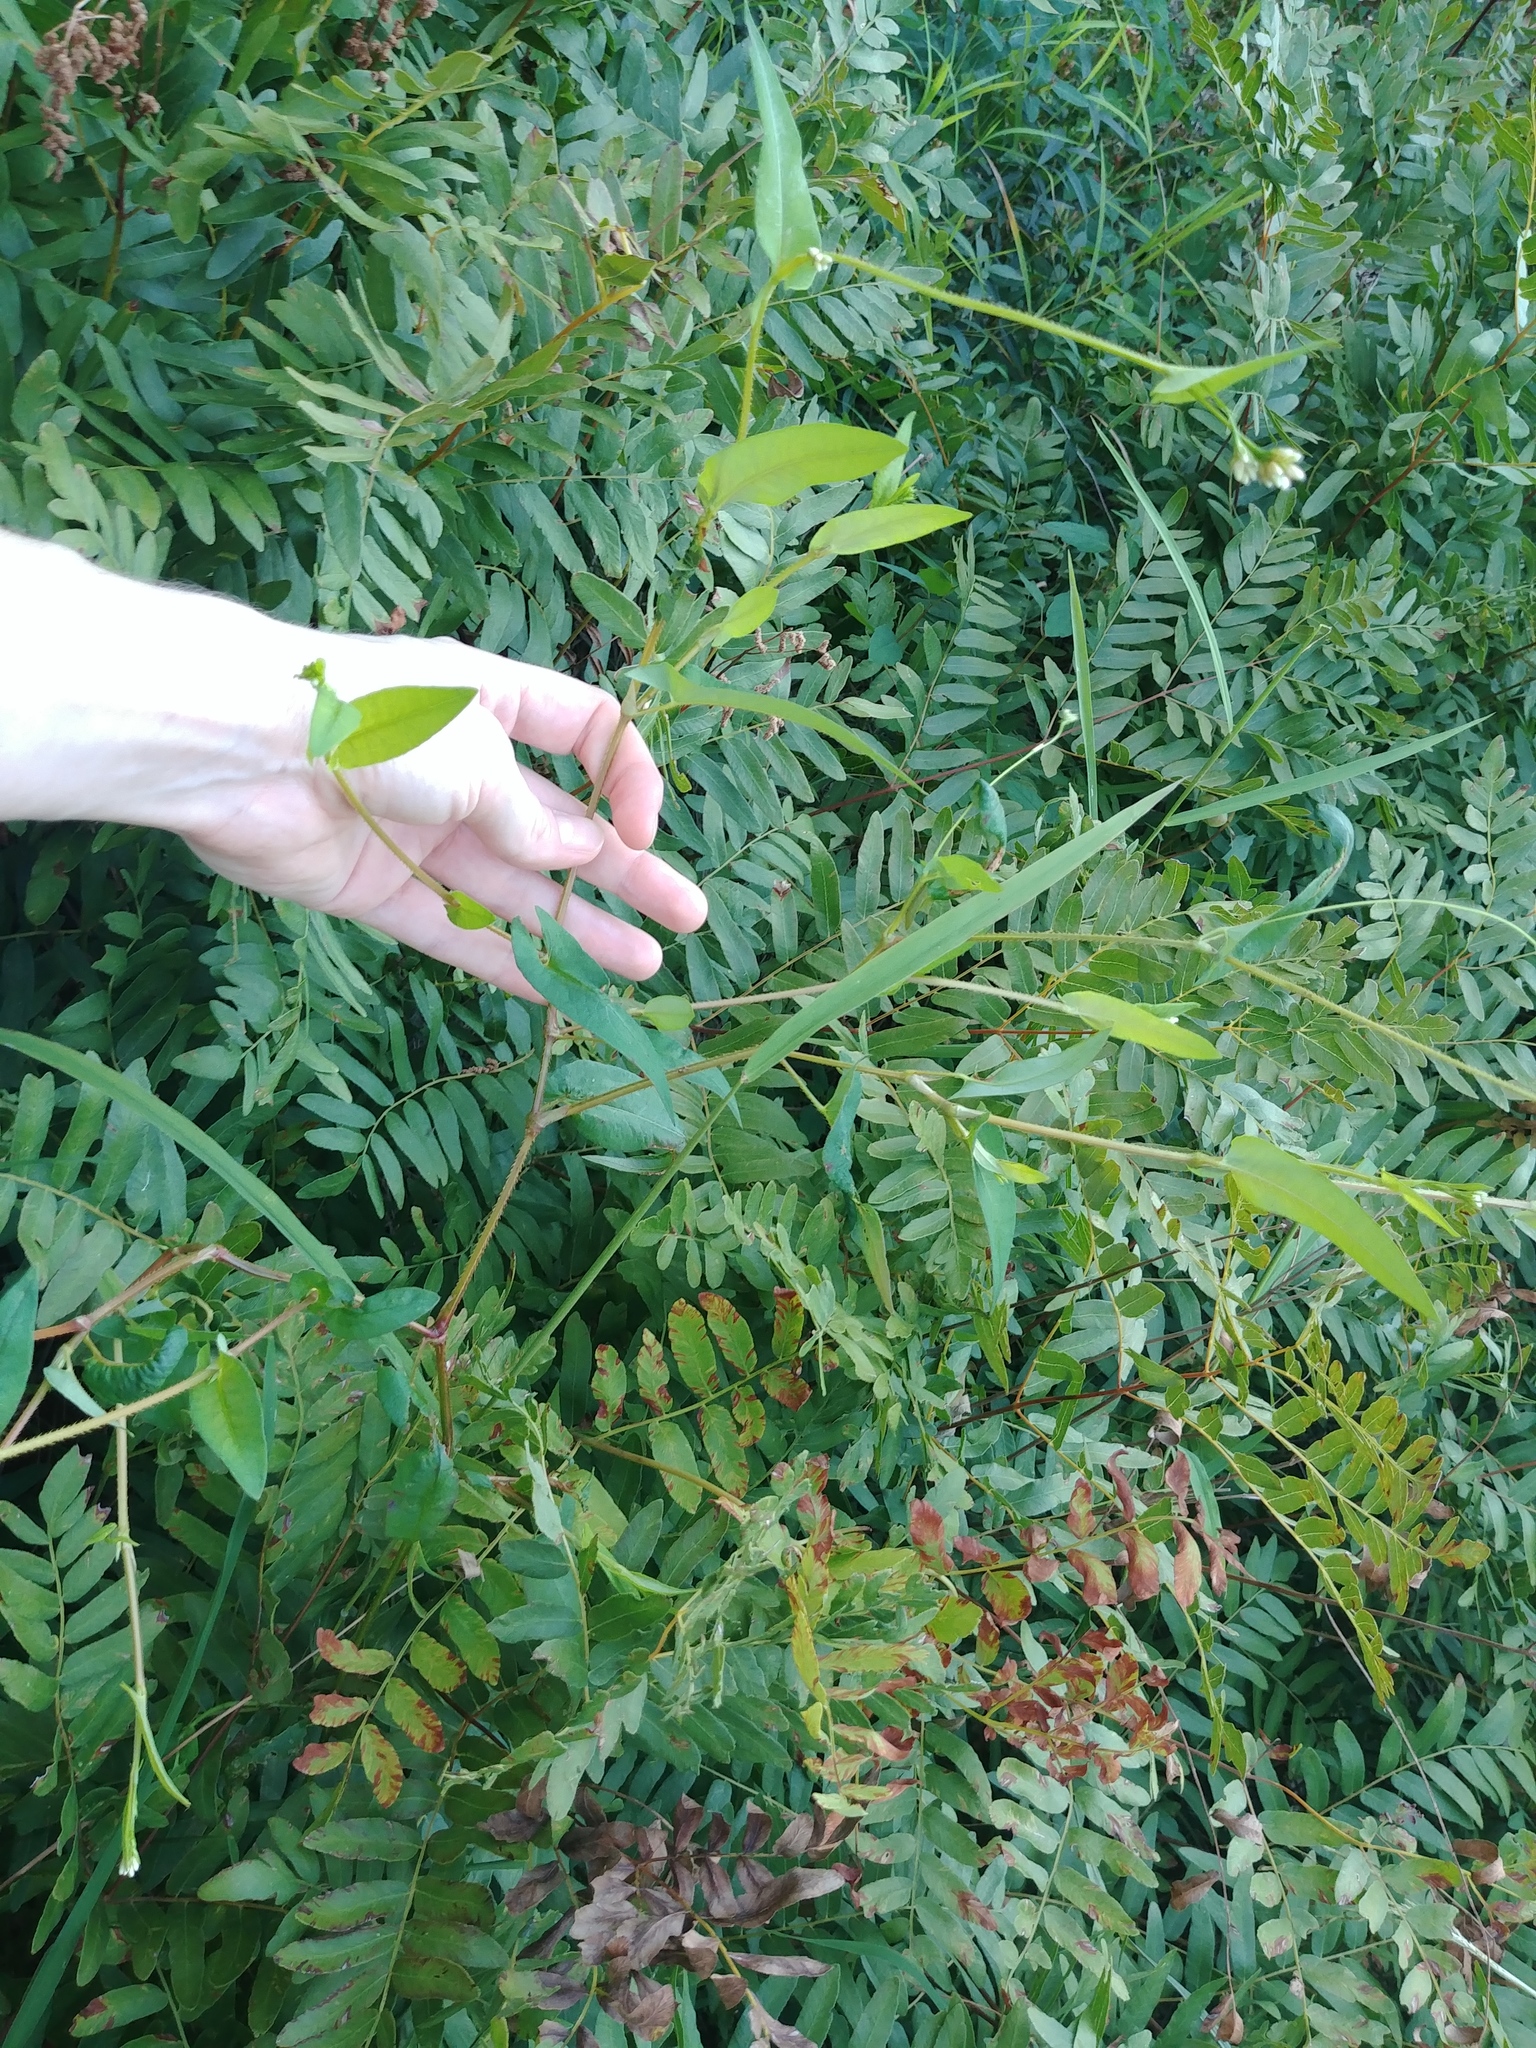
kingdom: Plantae
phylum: Tracheophyta
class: Magnoliopsida
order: Caryophyllales
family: Polygonaceae
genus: Persicaria
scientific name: Persicaria sagittata
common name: American tearthumb
